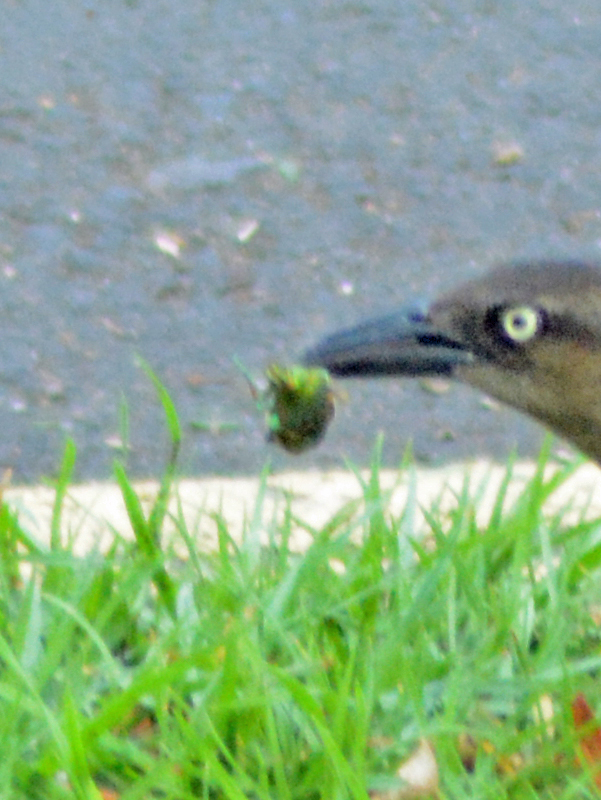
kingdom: Animalia
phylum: Arthropoda
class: Insecta
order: Coleoptera
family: Scarabaeidae
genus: Cotinis
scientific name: Cotinis mutabilis
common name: Figeater beetle
